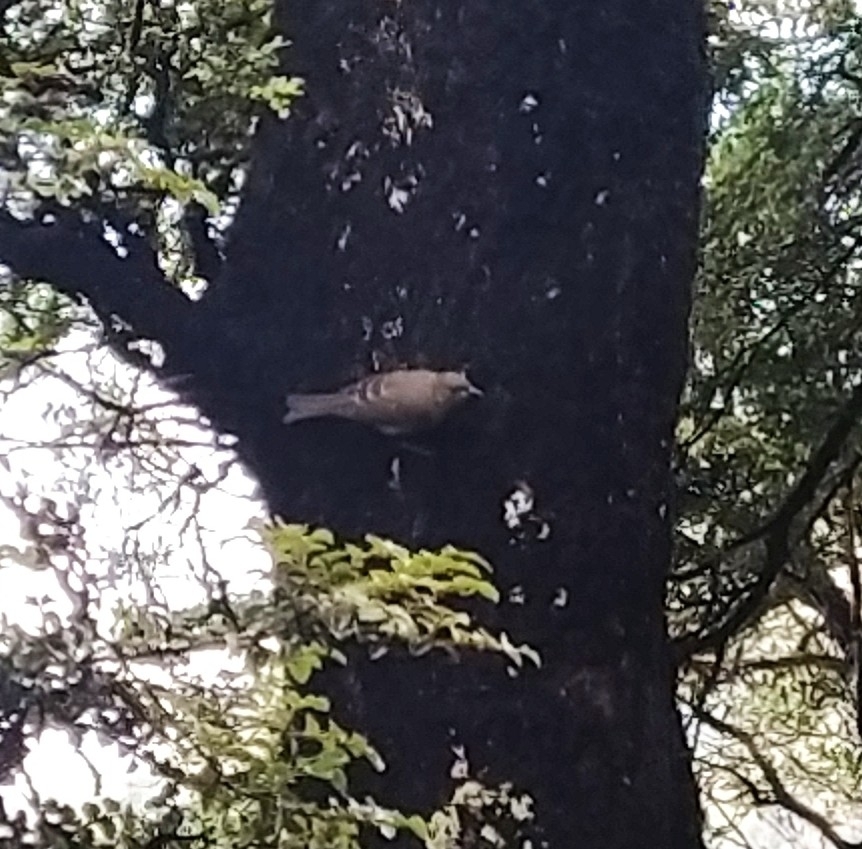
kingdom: Animalia
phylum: Chordata
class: Aves
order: Passeriformes
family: Meliphagidae
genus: Anthornis
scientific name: Anthornis melanura
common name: New zealand bellbird
